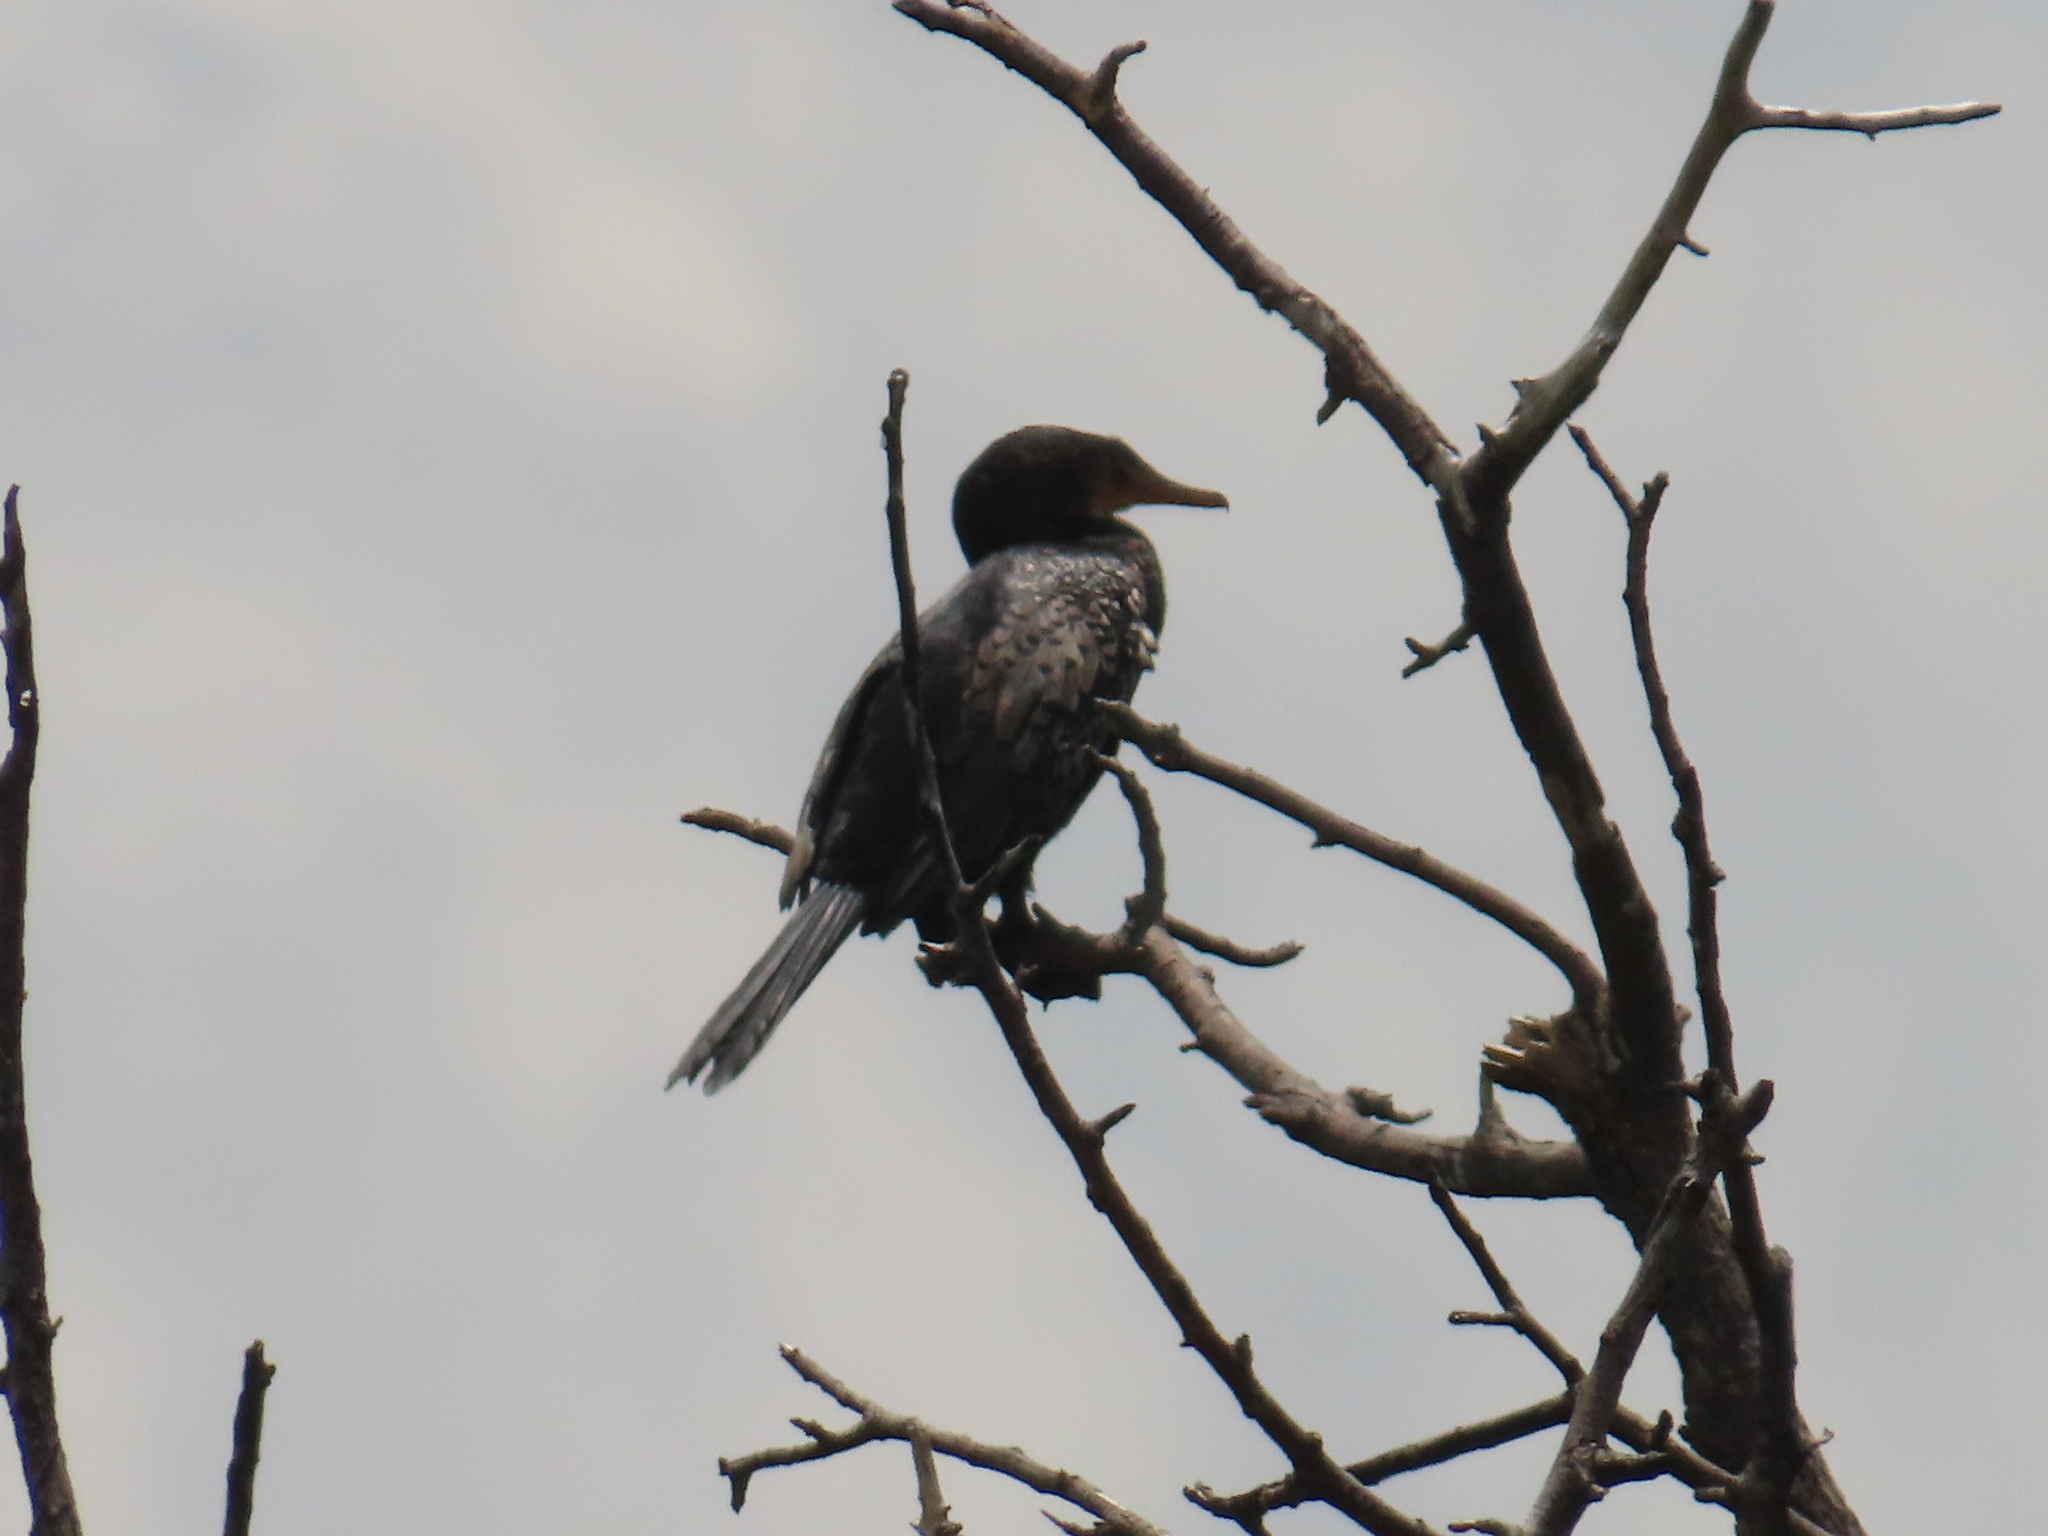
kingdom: Animalia
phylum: Chordata
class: Aves
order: Suliformes
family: Phalacrocoracidae
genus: Microcarbo
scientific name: Microcarbo africanus
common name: Long-tailed cormorant
